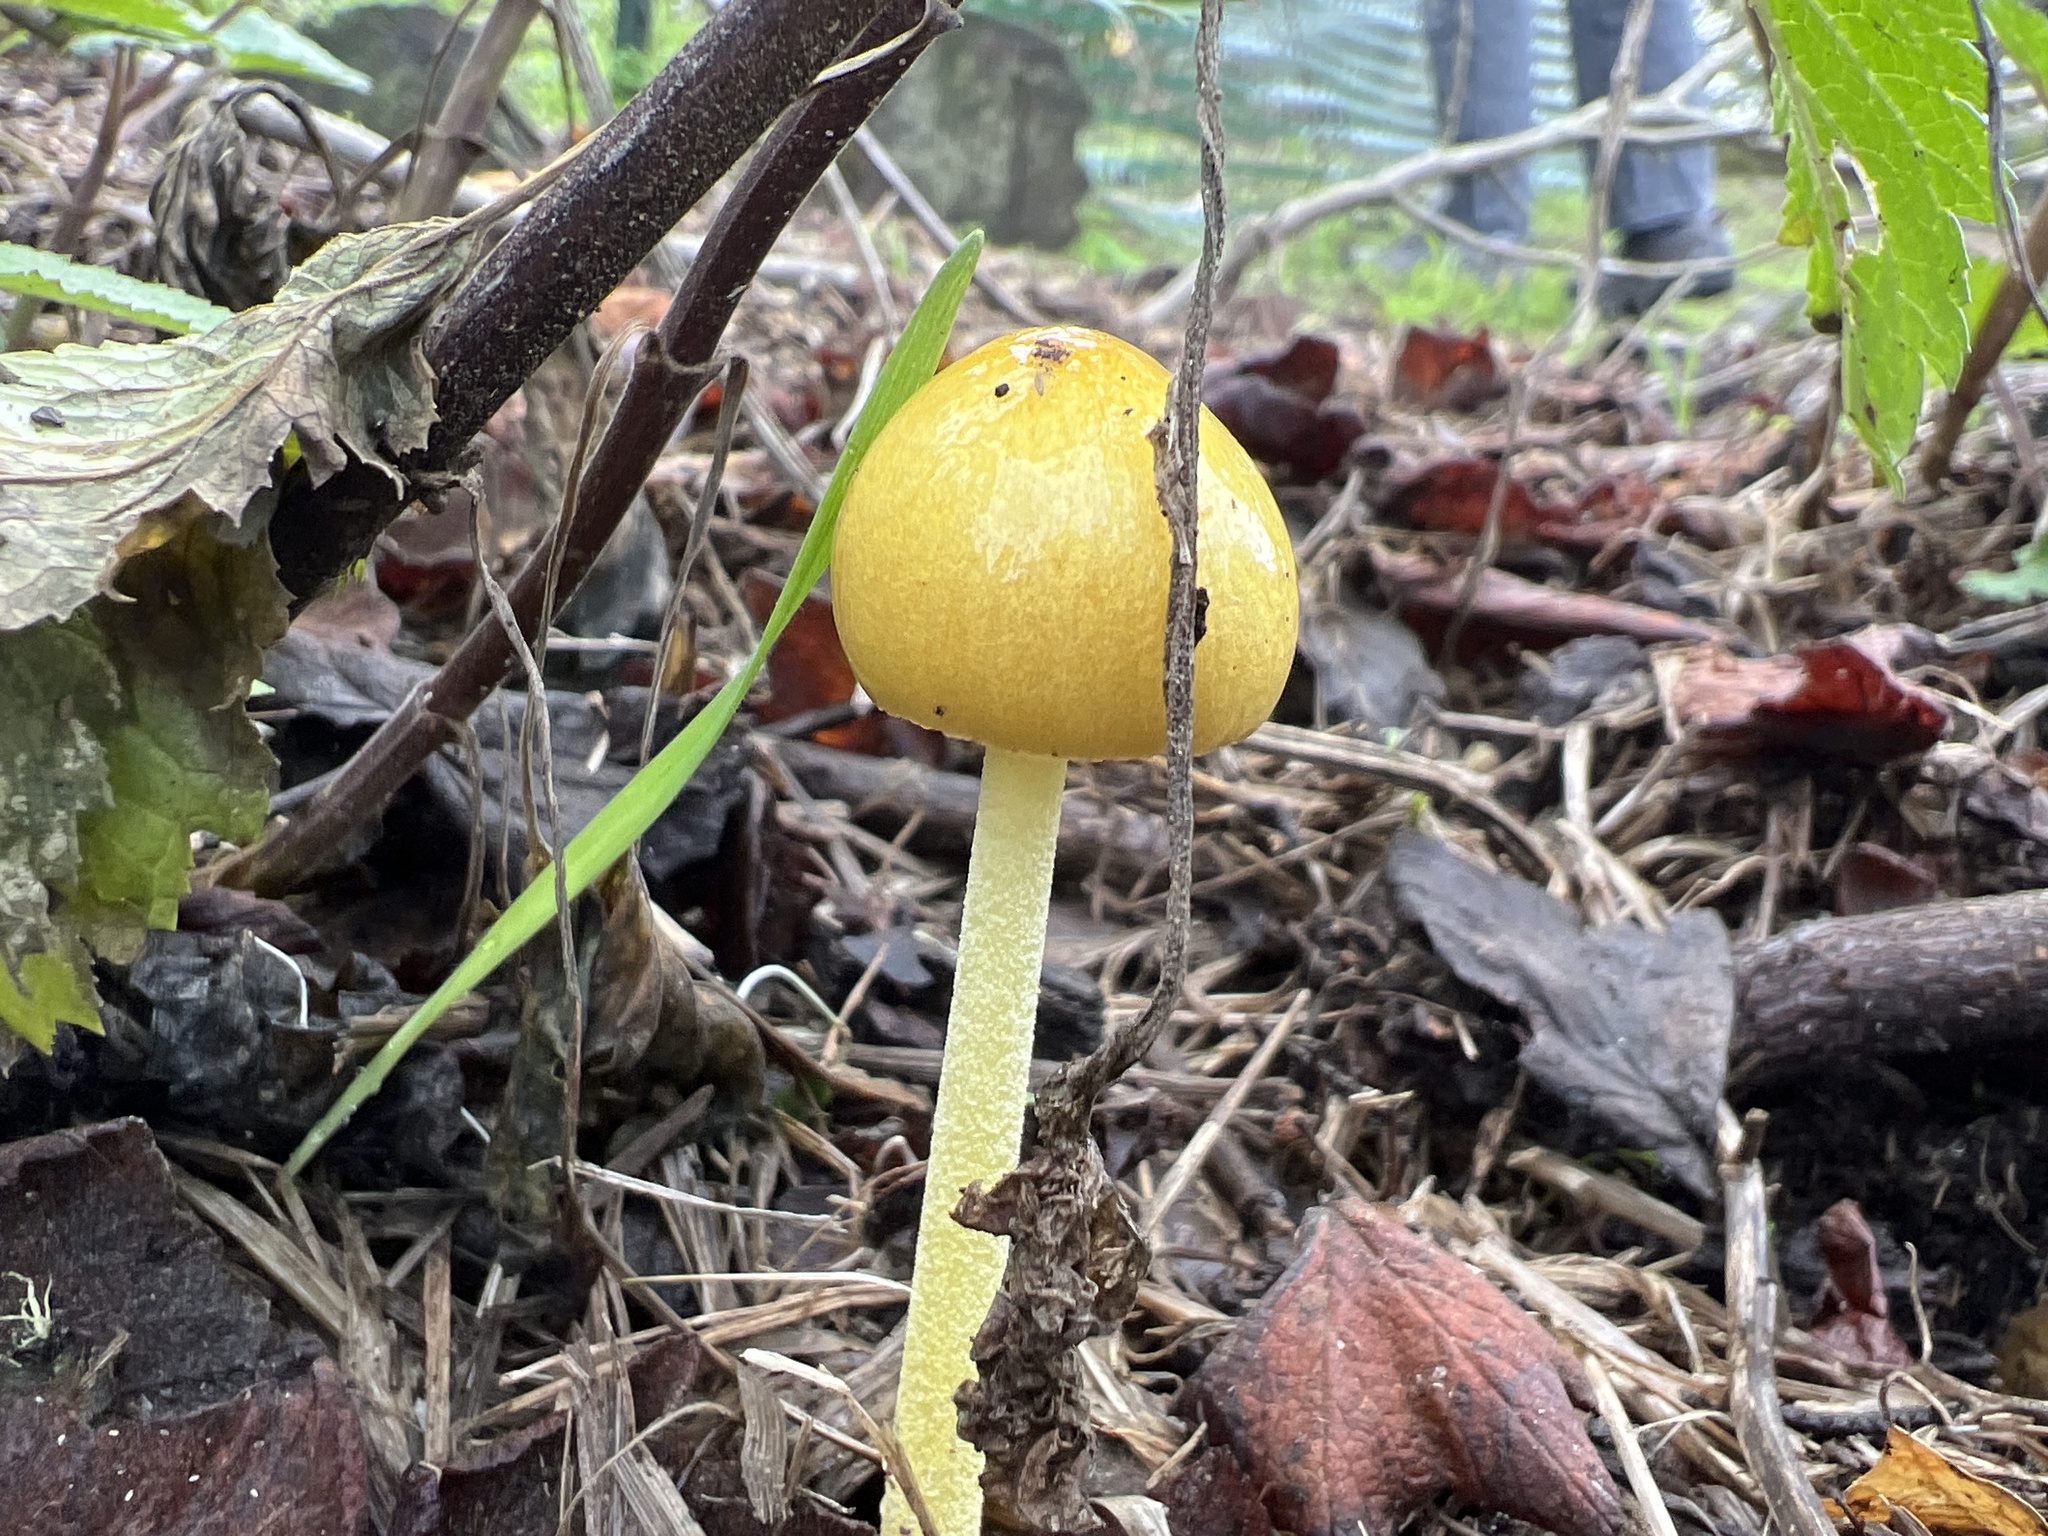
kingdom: Fungi
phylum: Basidiomycota
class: Agaricomycetes
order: Agaricales
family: Bolbitiaceae
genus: Bolbitius
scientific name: Bolbitius titubans
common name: Yellow fieldcap
